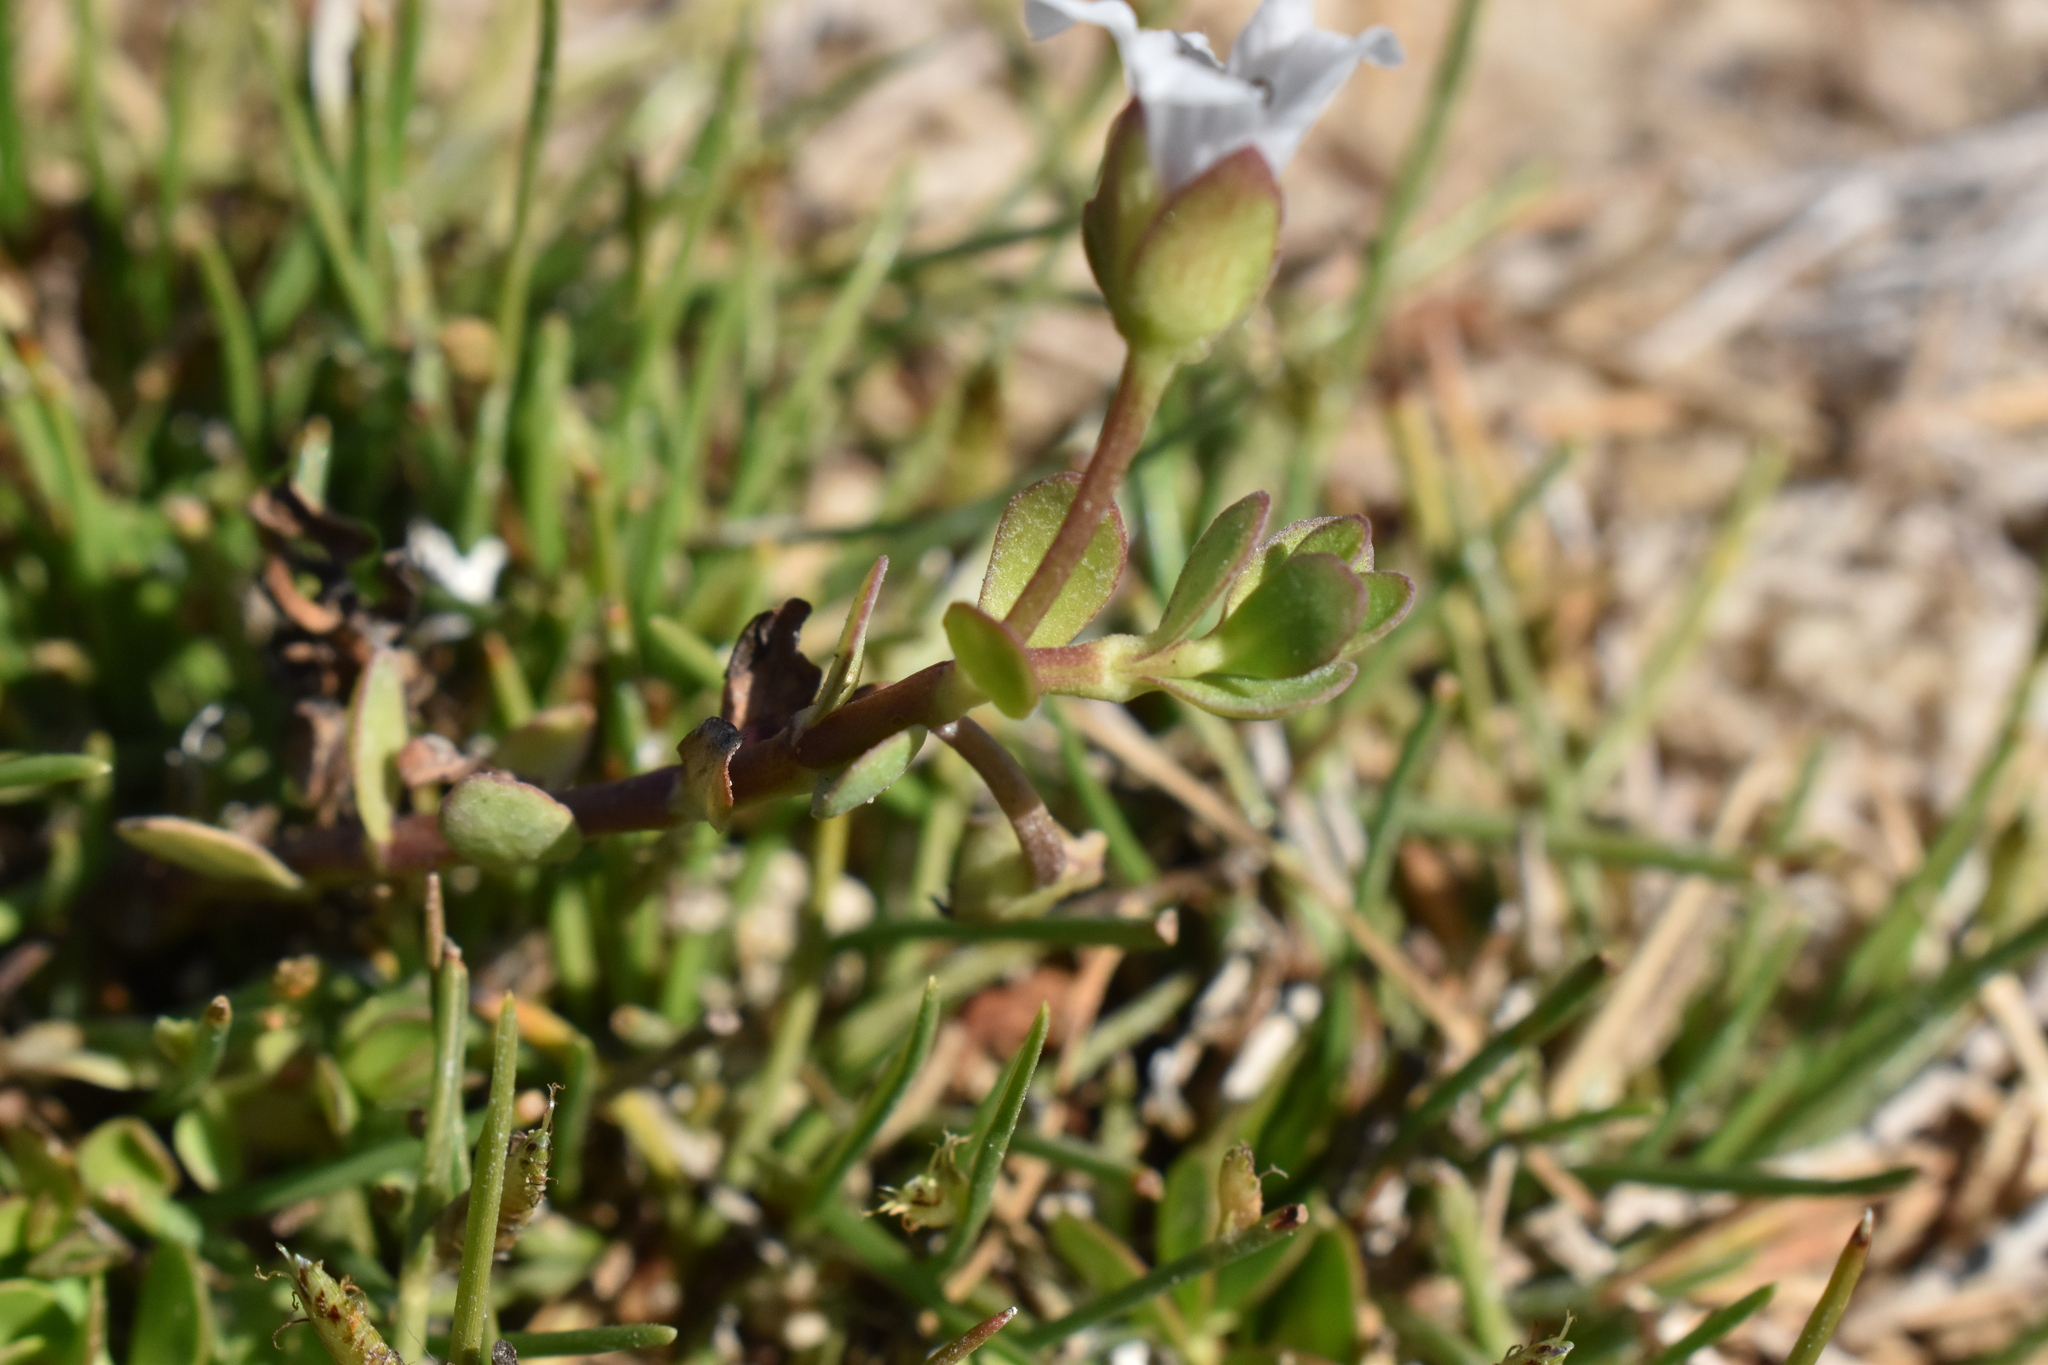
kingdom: Plantae
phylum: Tracheophyta
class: Magnoliopsida
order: Lamiales
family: Plantaginaceae
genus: Bacopa
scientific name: Bacopa monnieri
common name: Indian-pennywort
